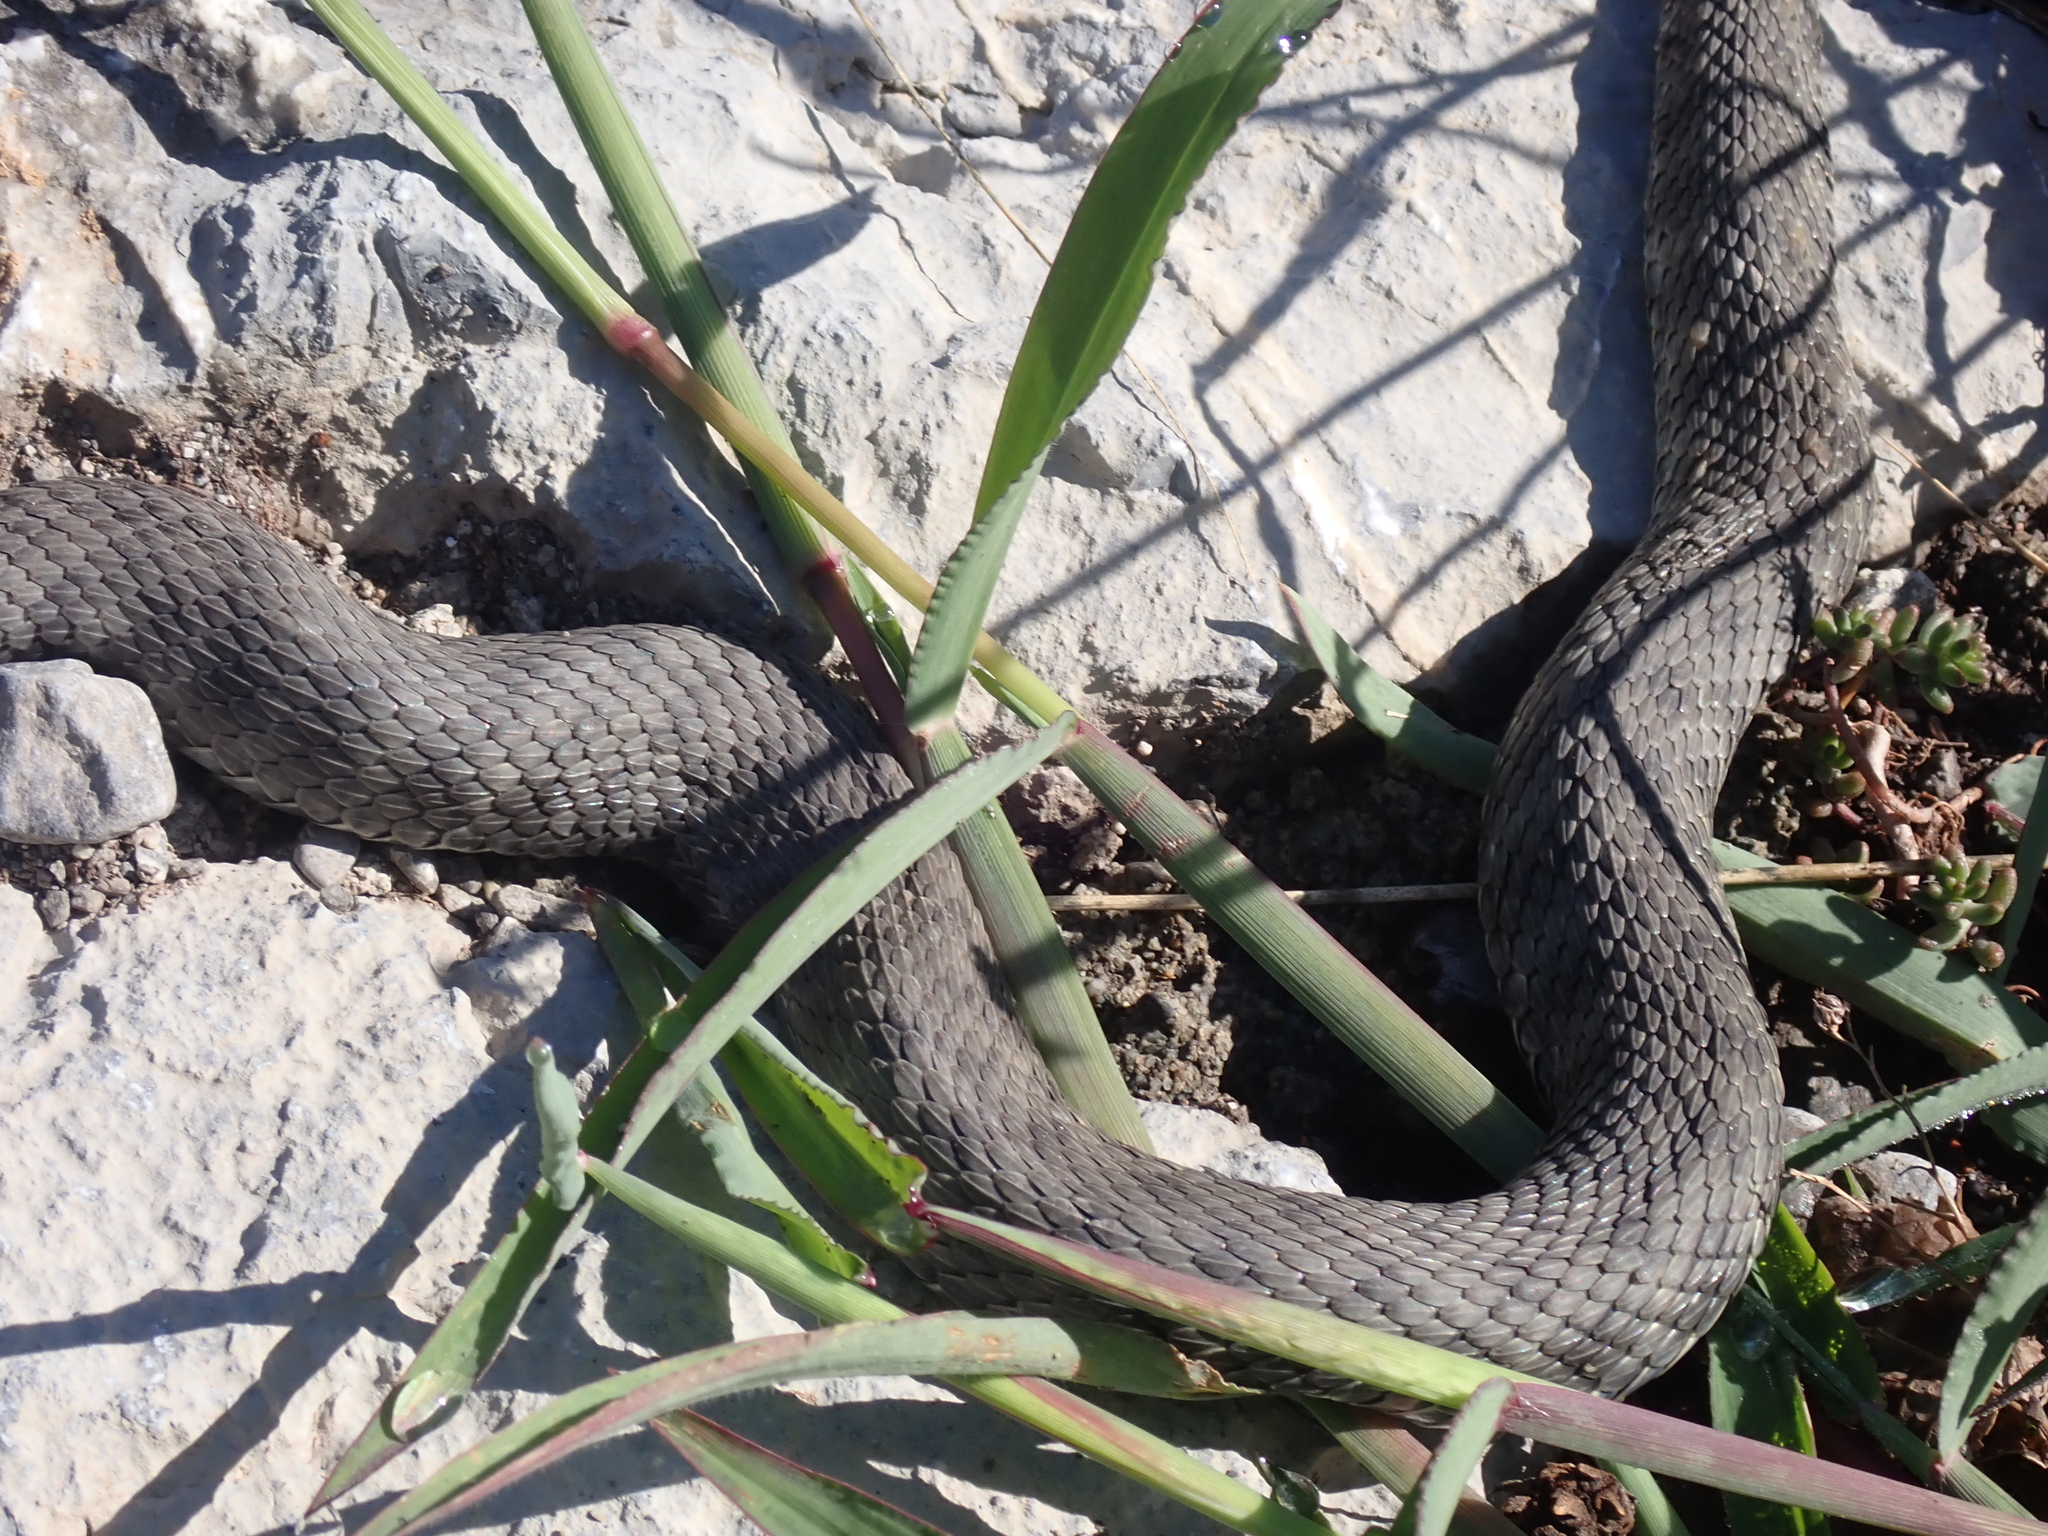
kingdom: Animalia
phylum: Chordata
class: Squamata
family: Colubridae
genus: Natrix
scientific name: Natrix tessellata
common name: Dice snake
